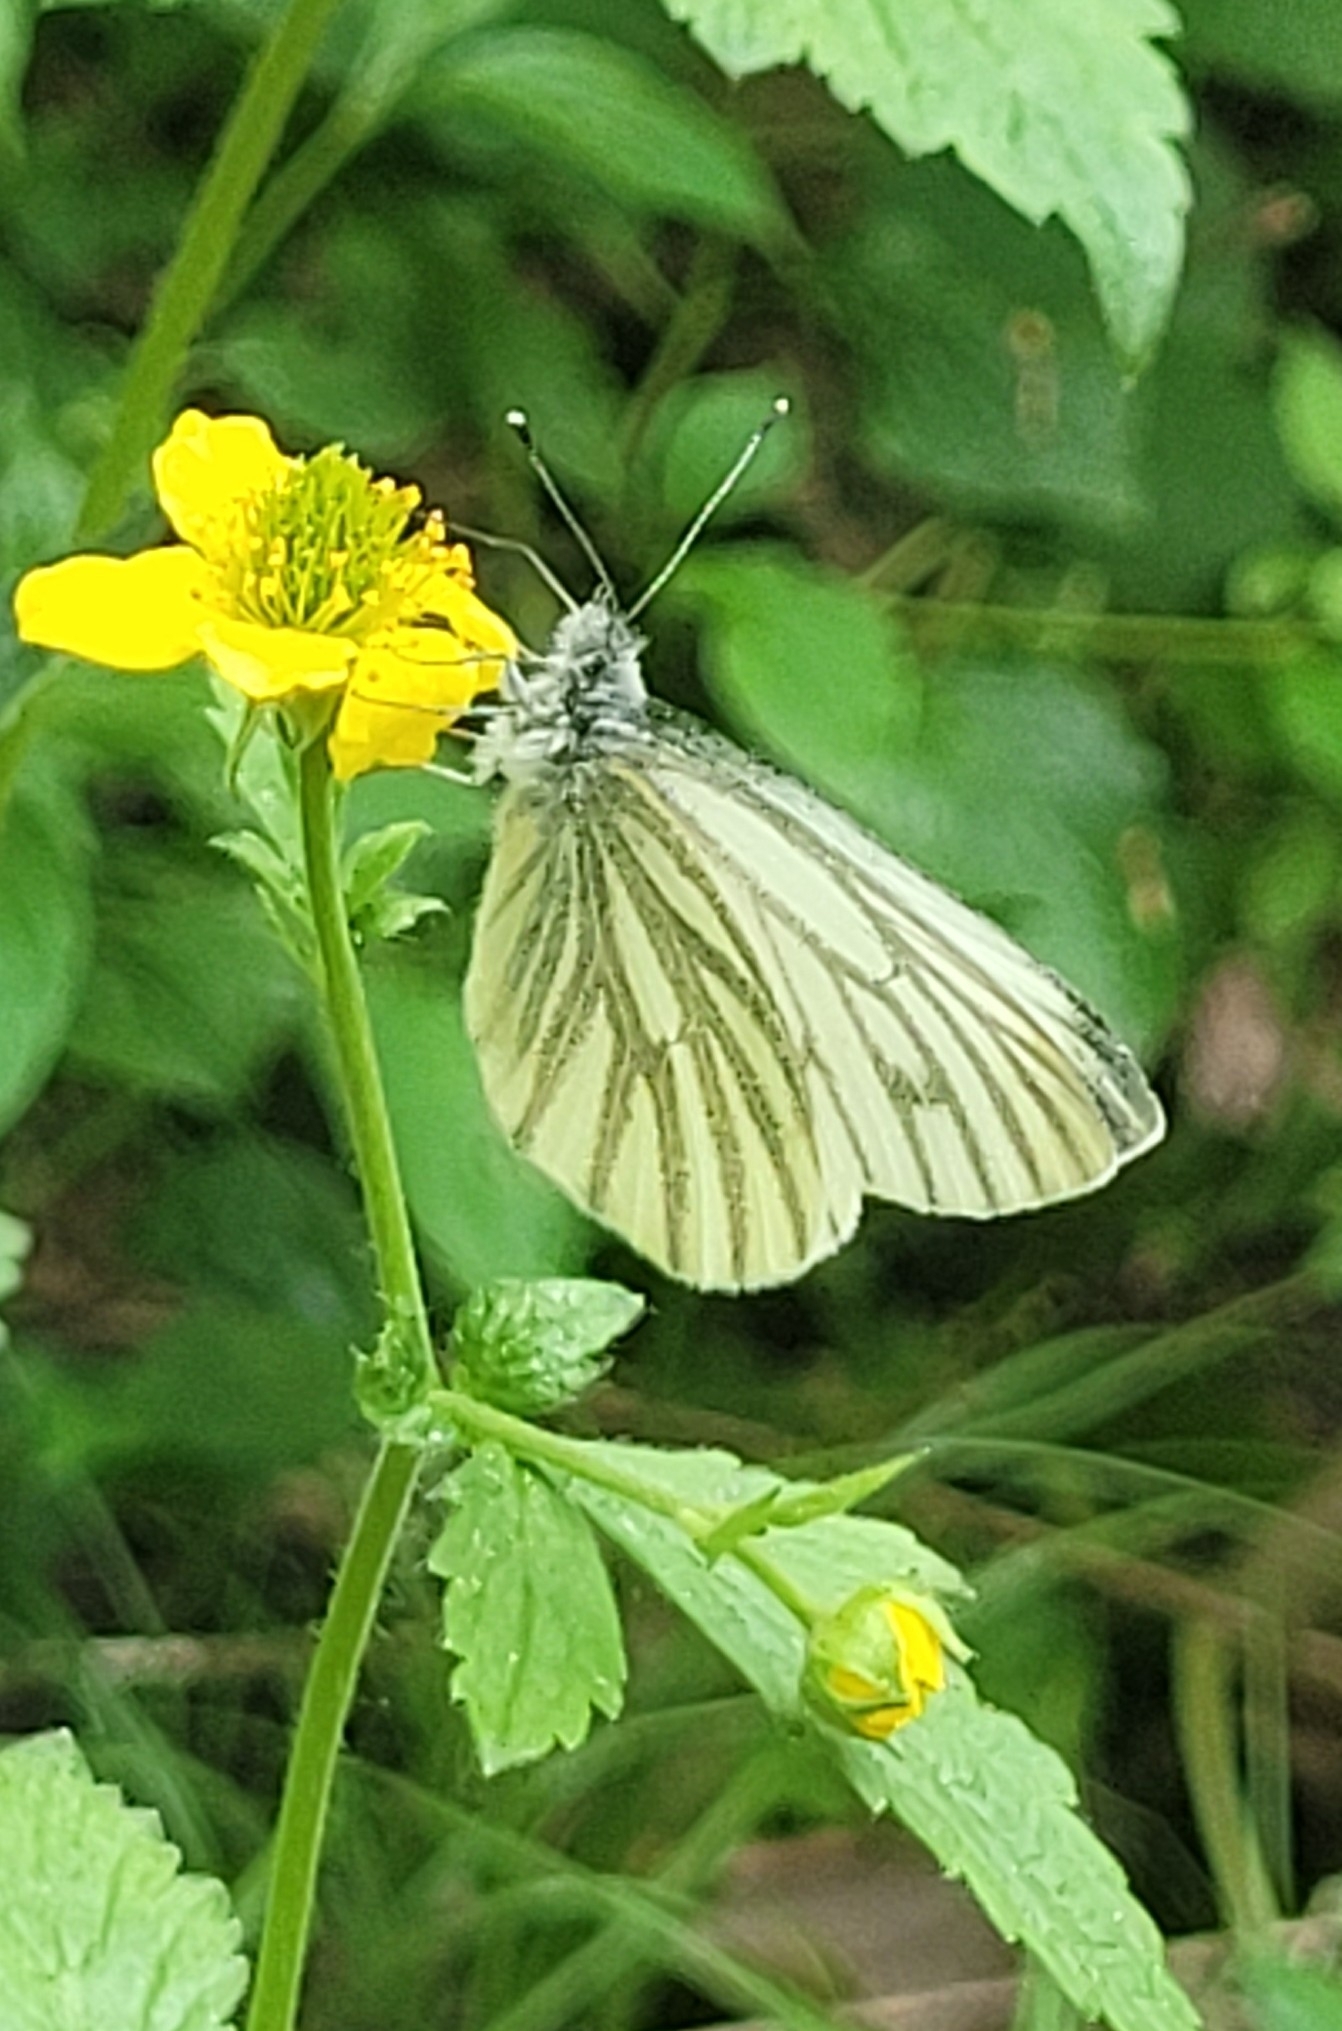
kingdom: Animalia
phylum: Arthropoda
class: Insecta
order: Lepidoptera
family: Pieridae
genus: Pieris
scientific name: Pieris napi
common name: Green-veined white
